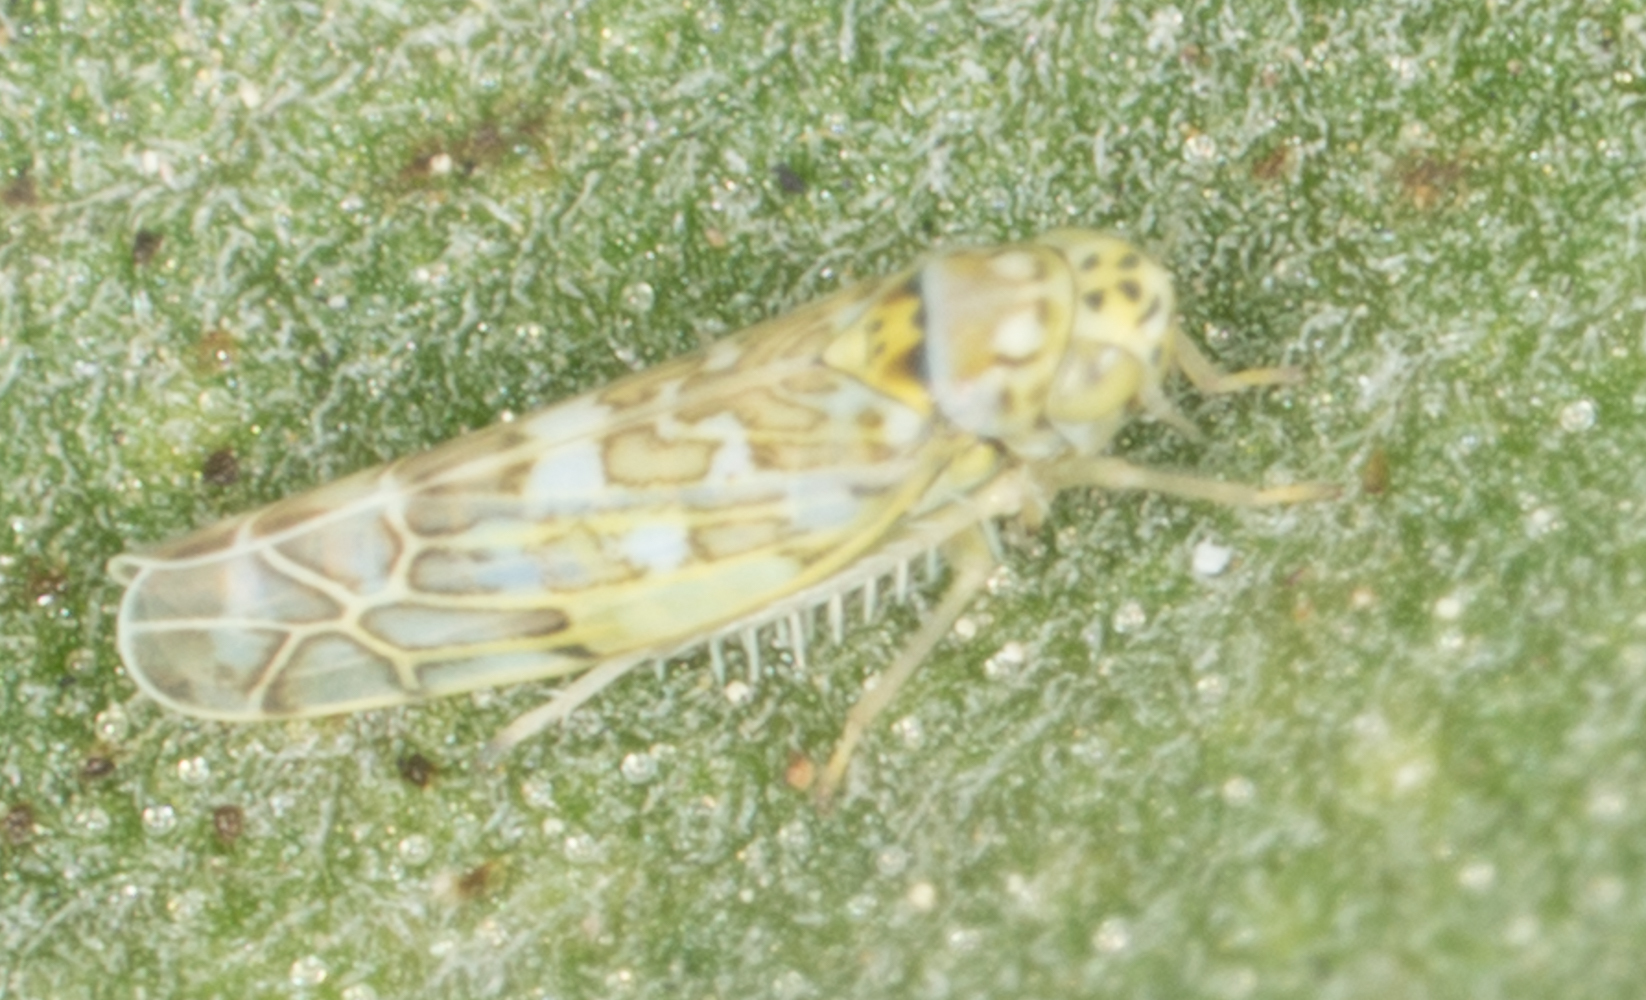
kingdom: Animalia
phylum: Arthropoda
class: Insecta
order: Hemiptera
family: Cicadellidae
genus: Eupteryx
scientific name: Eupteryx decemnotata
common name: Ligurian leafhopper
